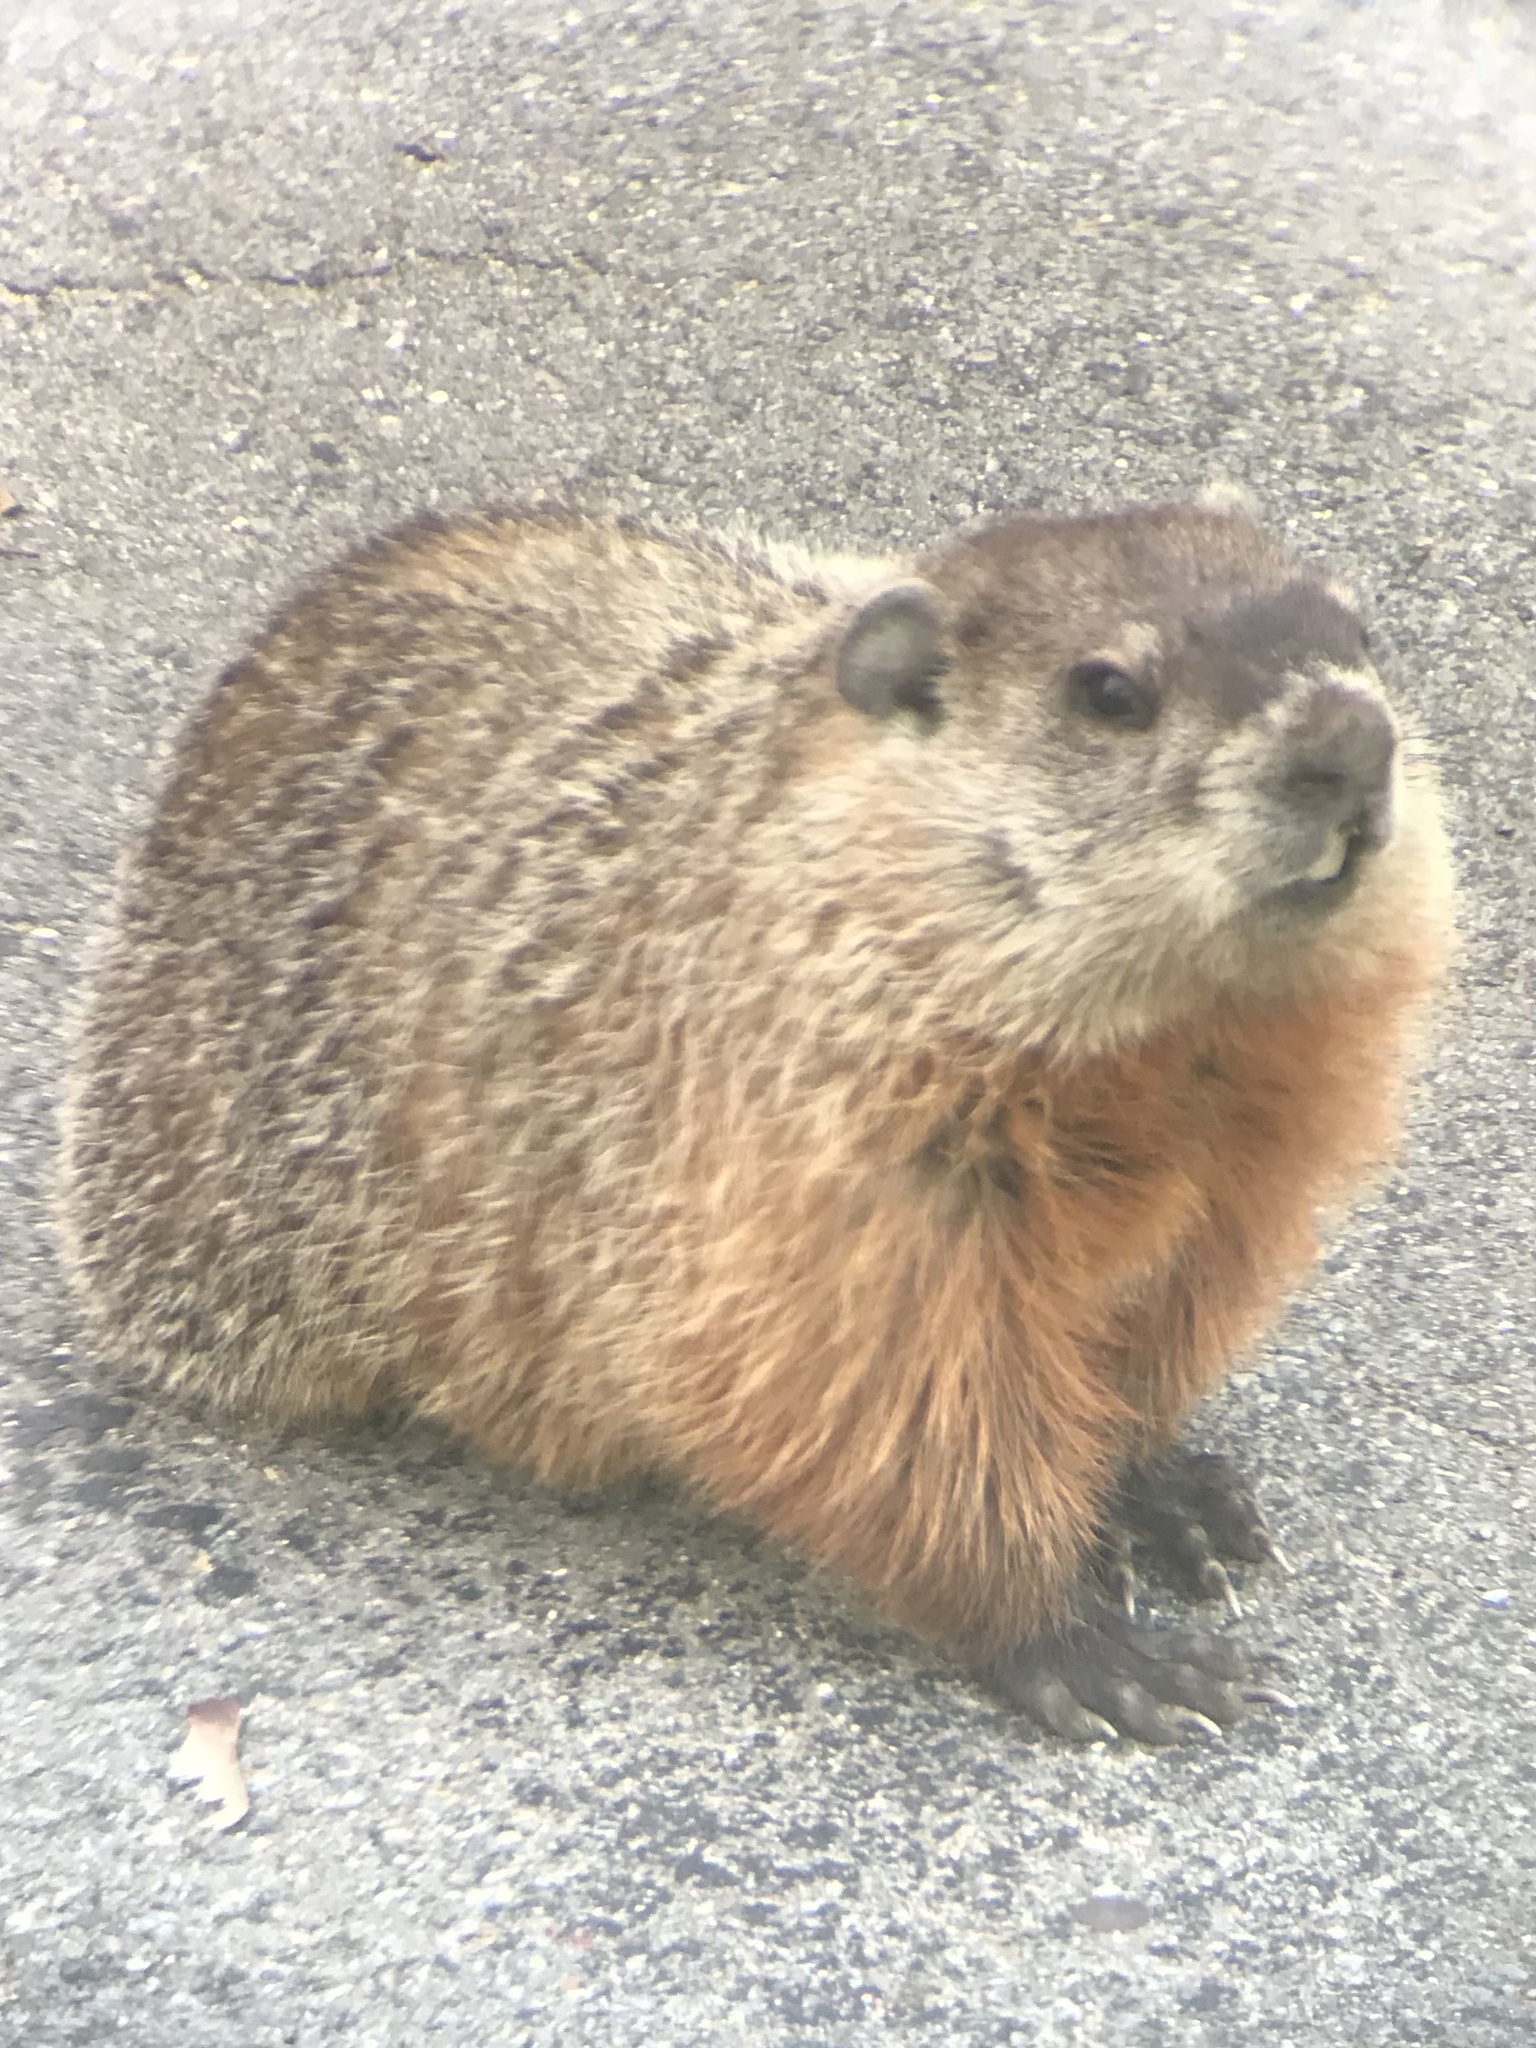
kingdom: Animalia
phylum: Chordata
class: Mammalia
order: Rodentia
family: Sciuridae
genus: Marmota
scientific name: Marmota monax
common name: Groundhog
